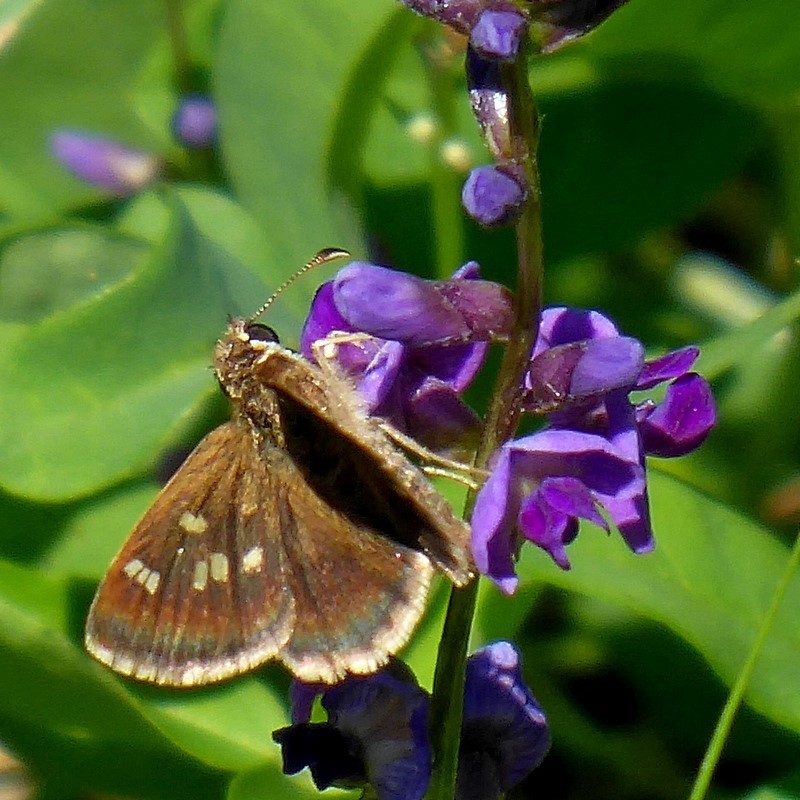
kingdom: Animalia
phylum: Arthropoda
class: Insecta
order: Lepidoptera
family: Hesperiidae
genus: Toxidia
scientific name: Toxidia parvulus
